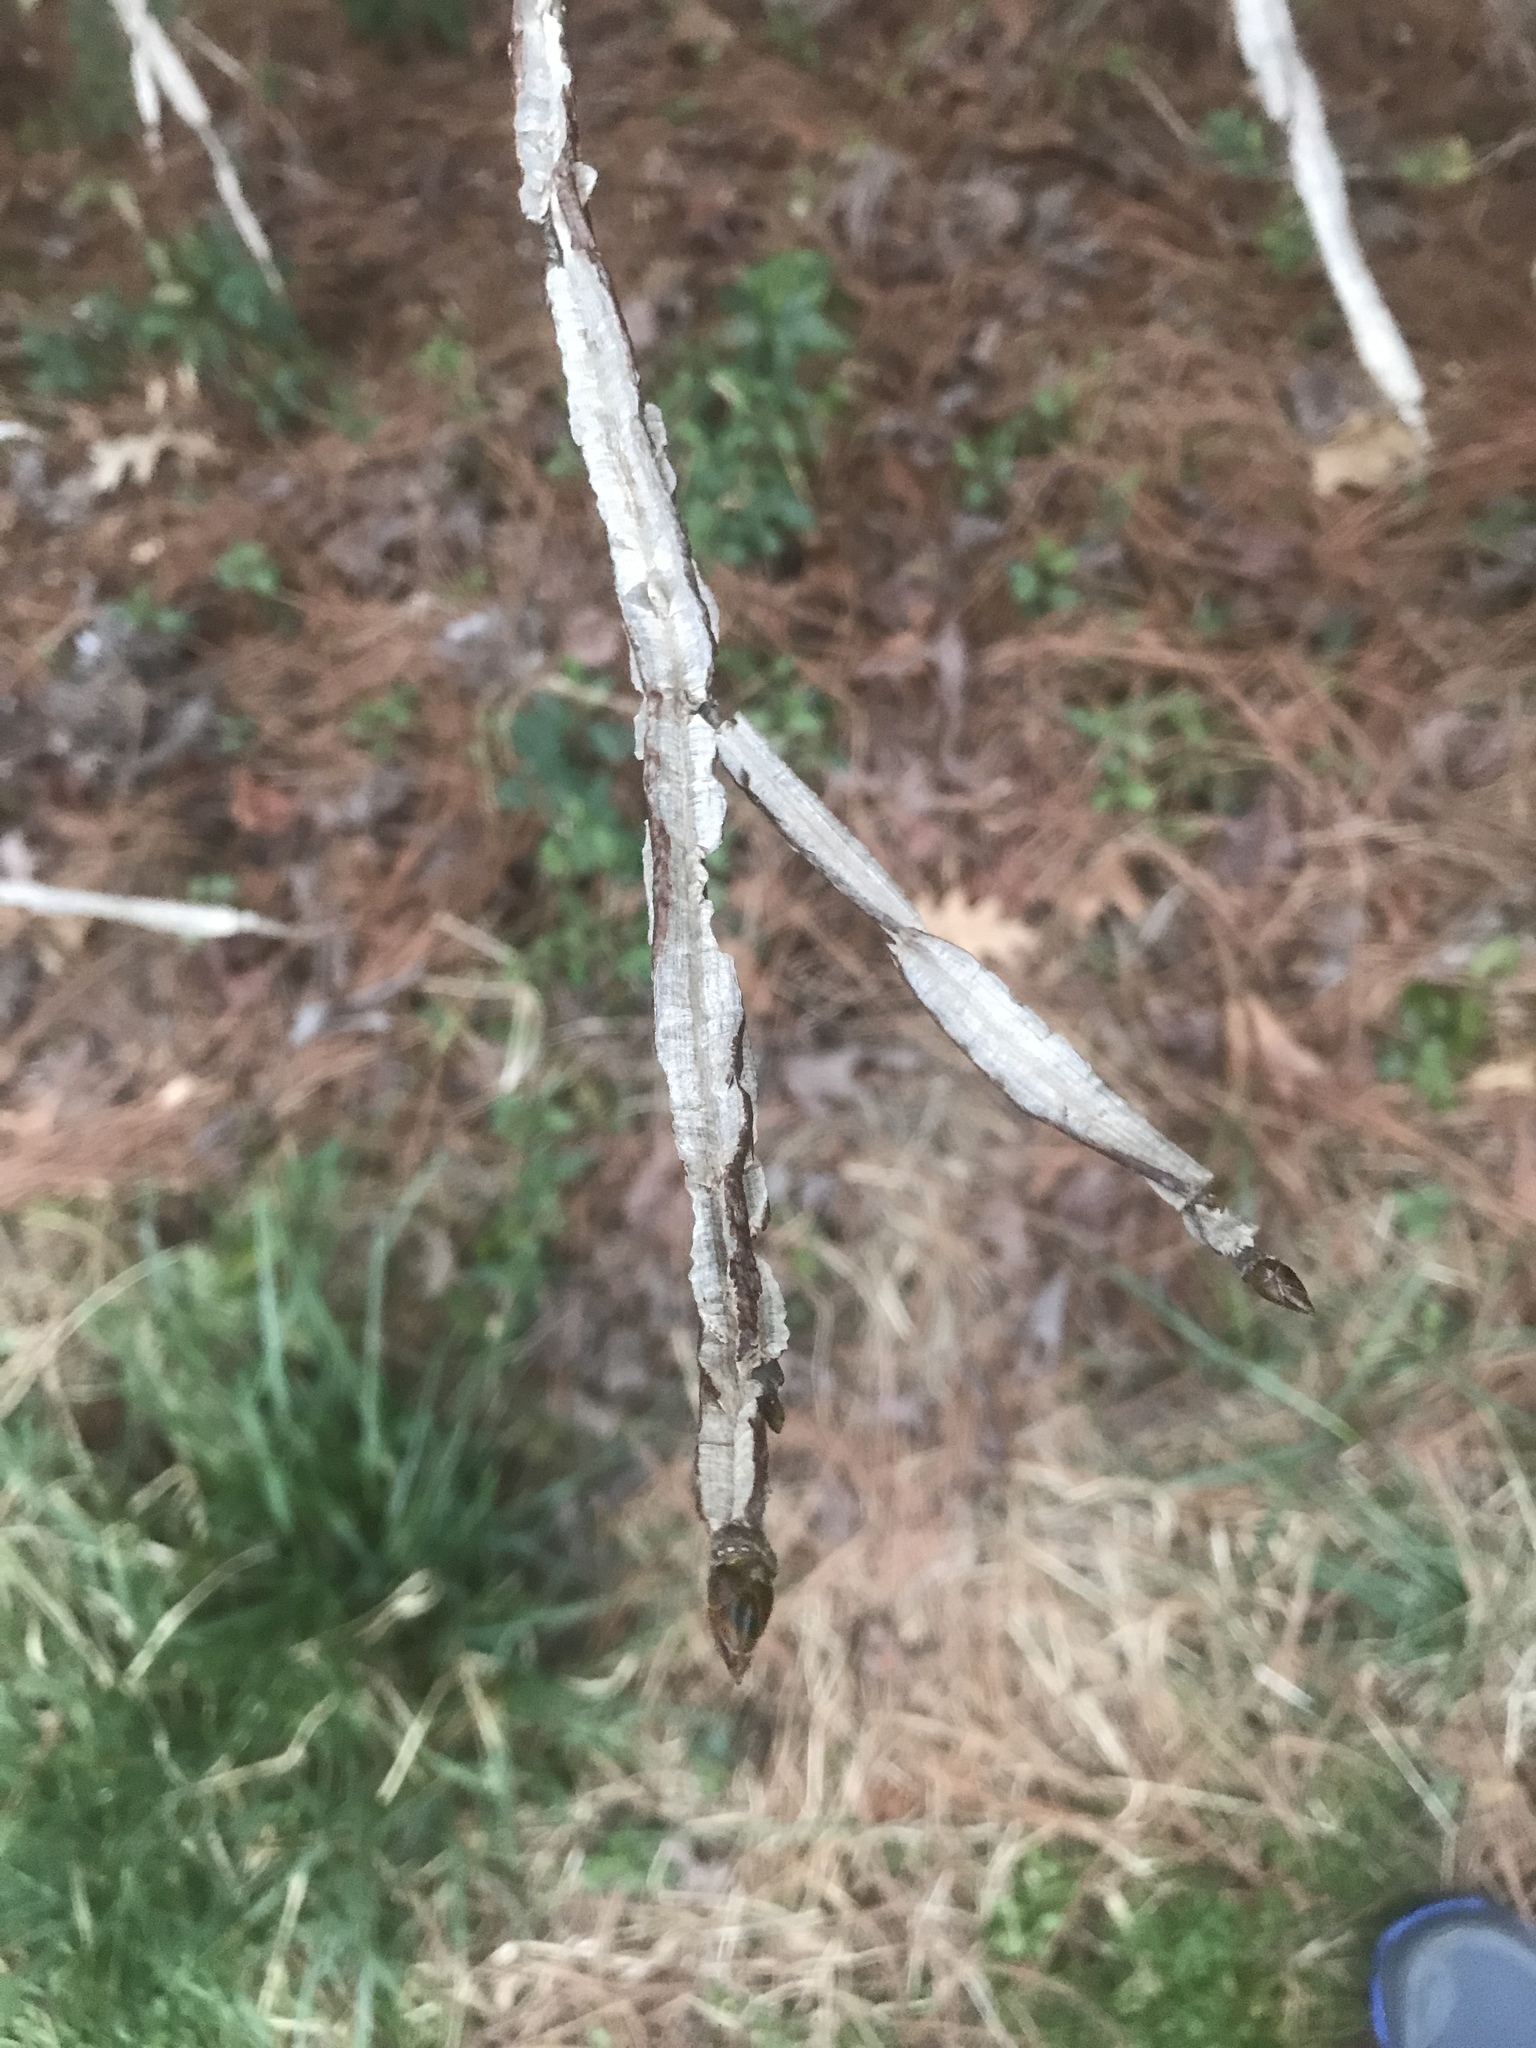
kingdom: Plantae
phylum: Tracheophyta
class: Magnoliopsida
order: Saxifragales
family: Altingiaceae
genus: Liquidambar
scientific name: Liquidambar styraciflua
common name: Sweet gum
